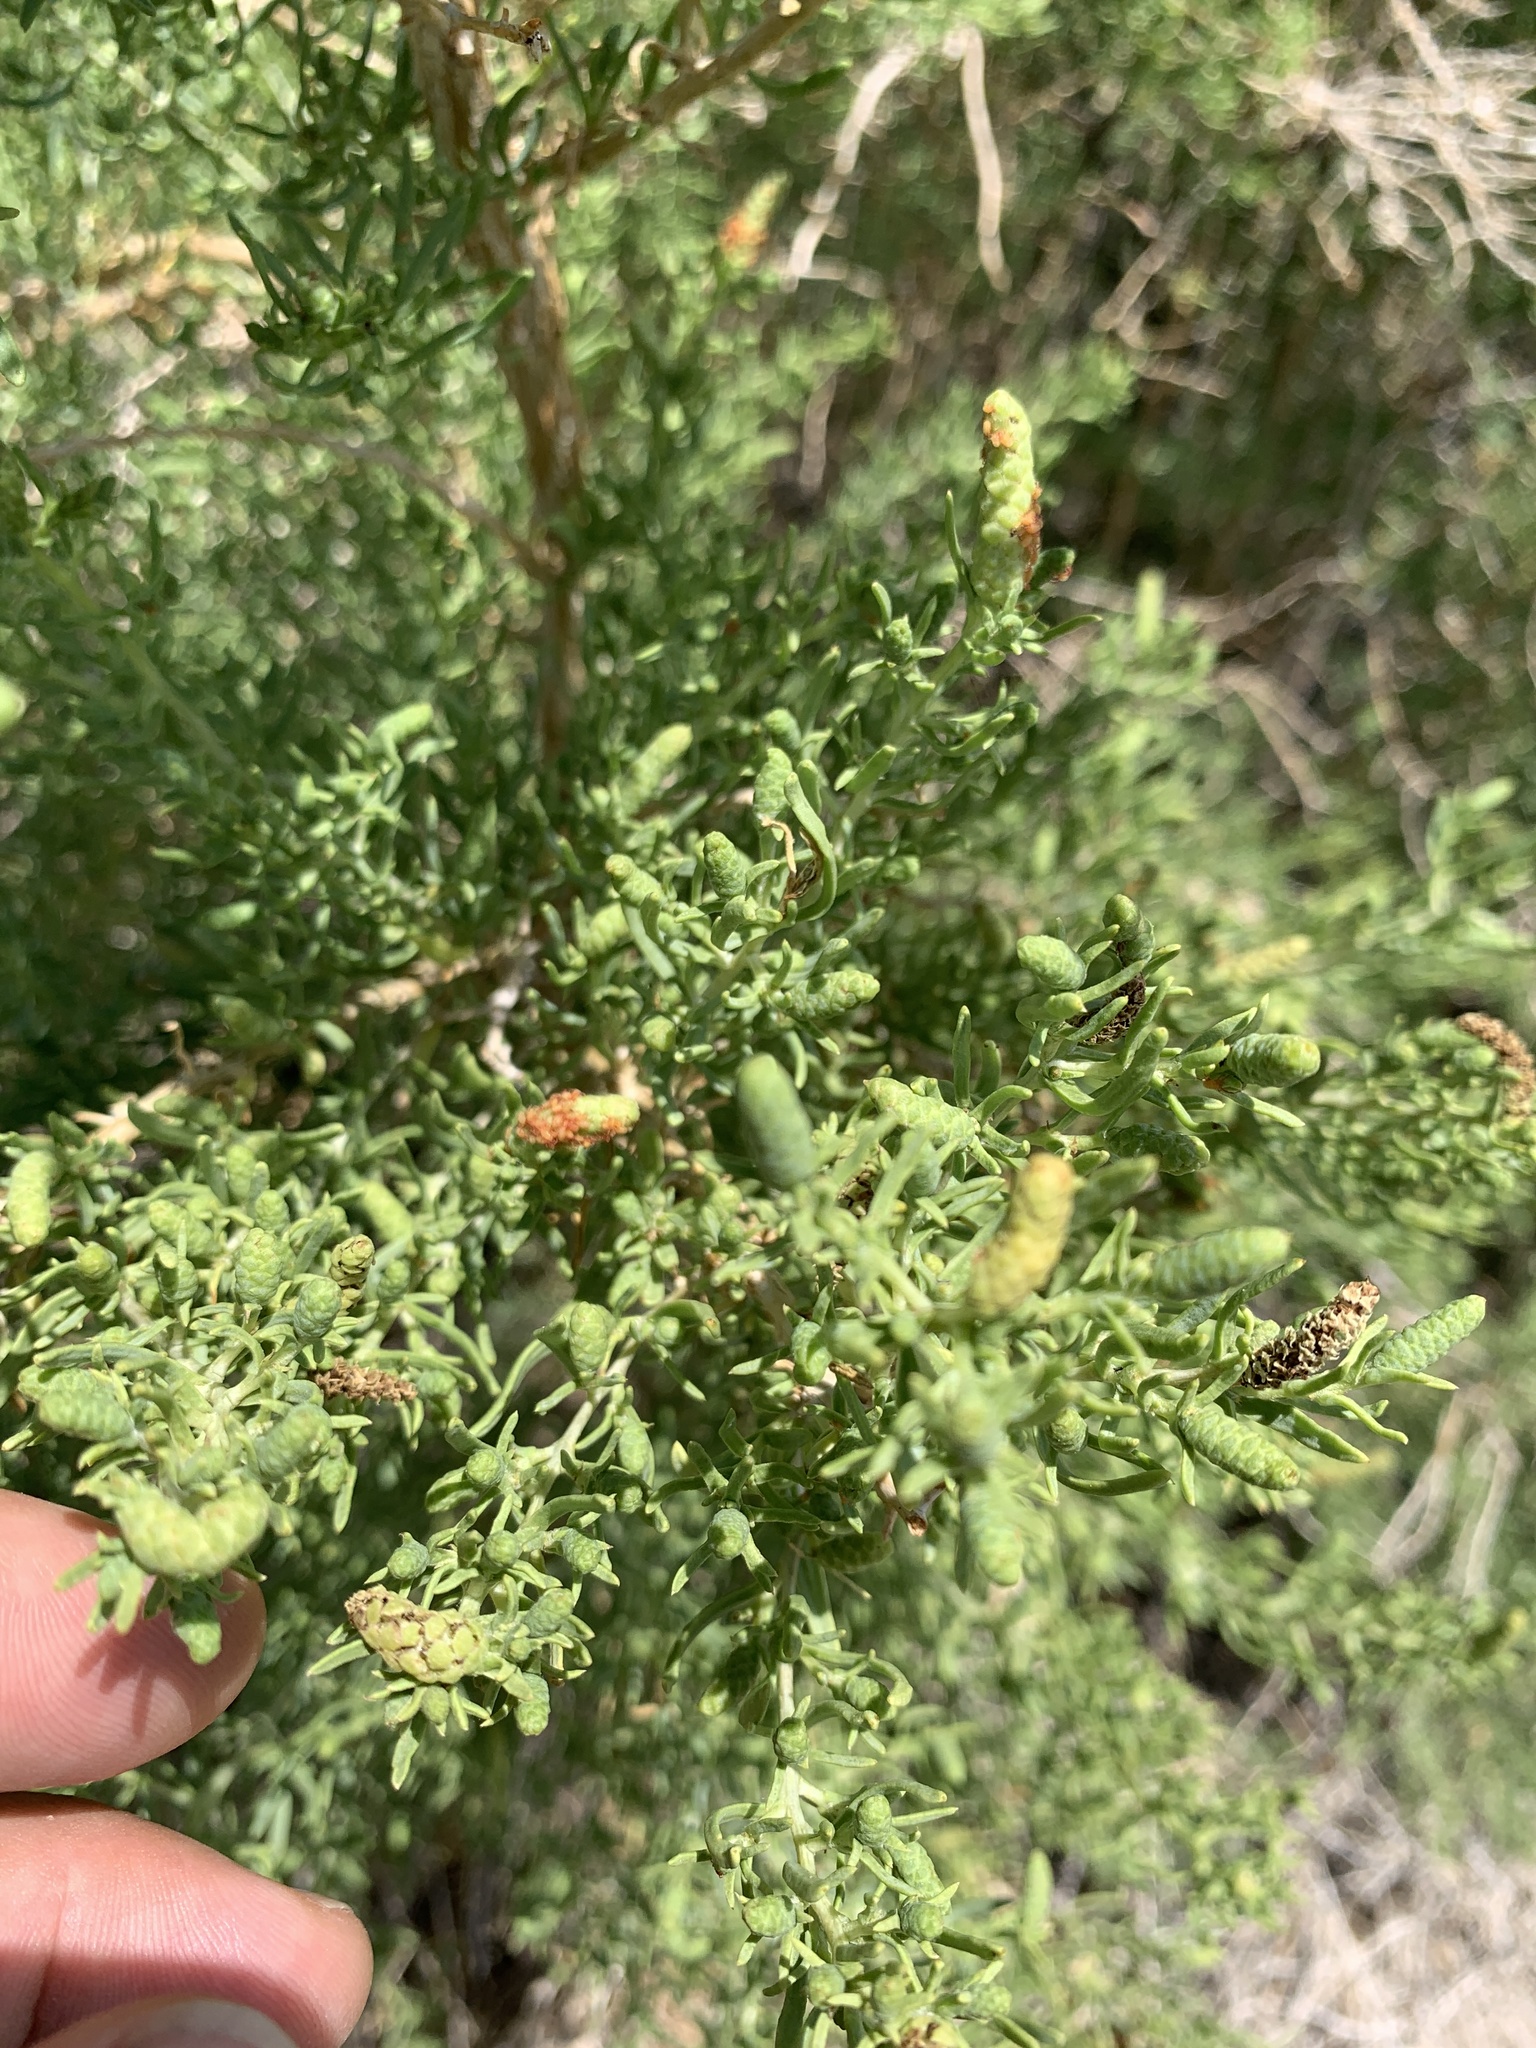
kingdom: Plantae
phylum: Tracheophyta
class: Magnoliopsida
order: Caryophyllales
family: Sarcobataceae
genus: Sarcobatus
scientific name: Sarcobatus vermiculatus
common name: Greasewood
